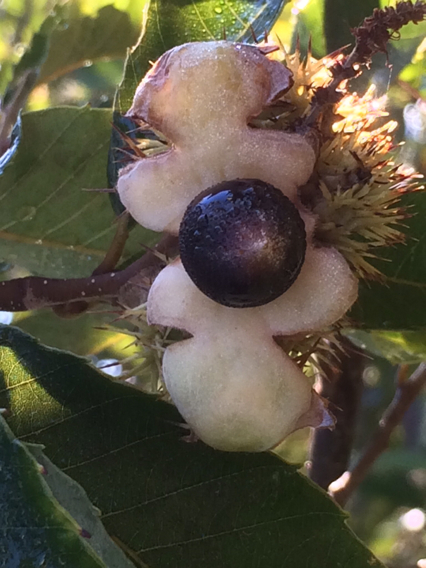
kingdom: Plantae
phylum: Tracheophyta
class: Magnoliopsida
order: Fagales
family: Fagaceae
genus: Castanea
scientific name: Castanea pumila
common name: Chinkapin
